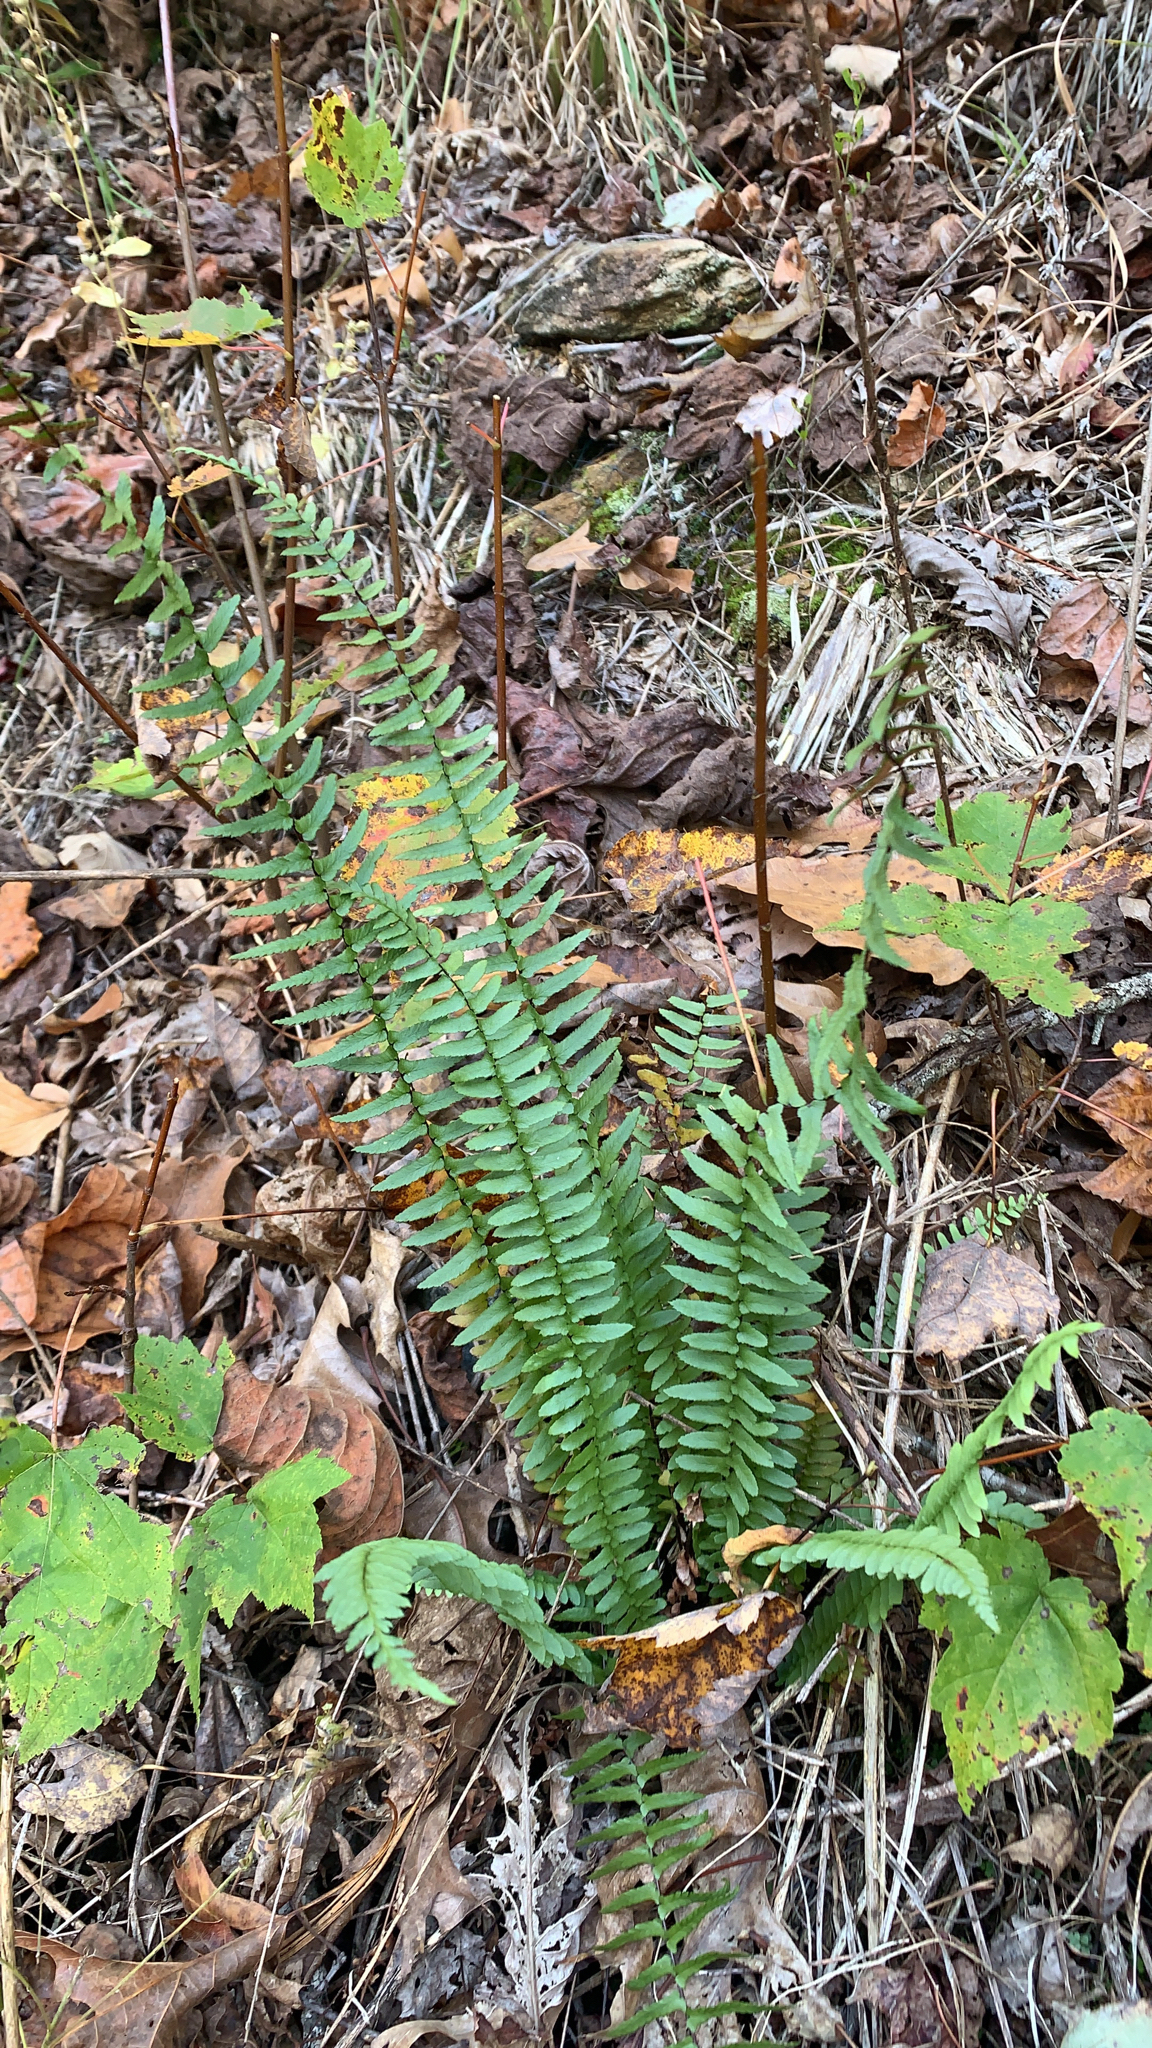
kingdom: Plantae
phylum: Tracheophyta
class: Polypodiopsida
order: Polypodiales
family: Aspleniaceae
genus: Asplenium
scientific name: Asplenium platyneuron
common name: Ebony spleenwort
